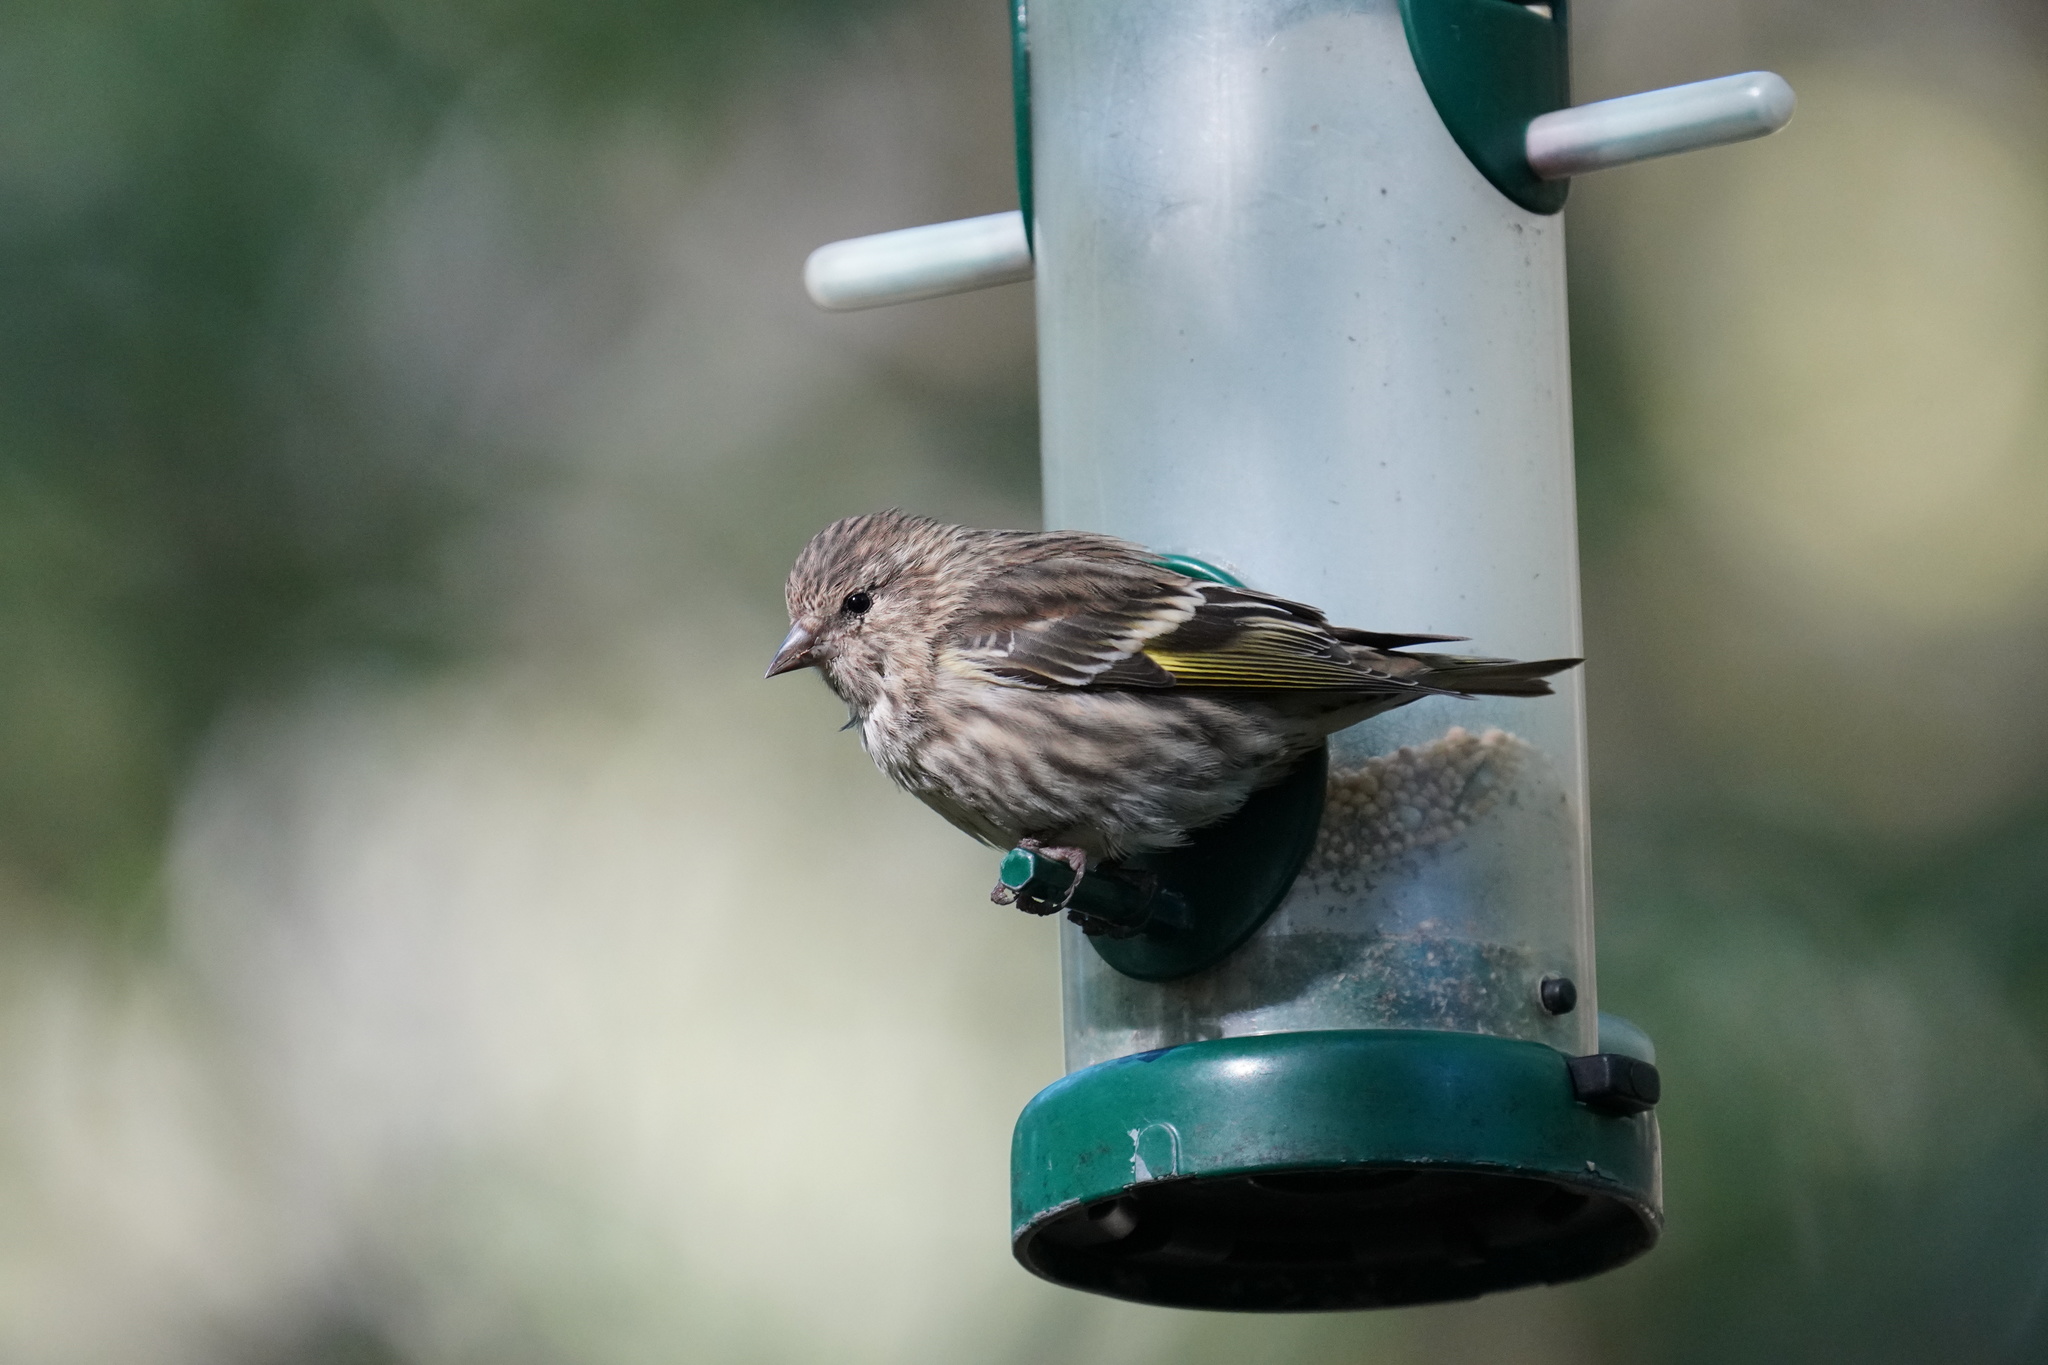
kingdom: Animalia
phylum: Chordata
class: Aves
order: Passeriformes
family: Fringillidae
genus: Spinus
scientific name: Spinus pinus
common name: Pine siskin
